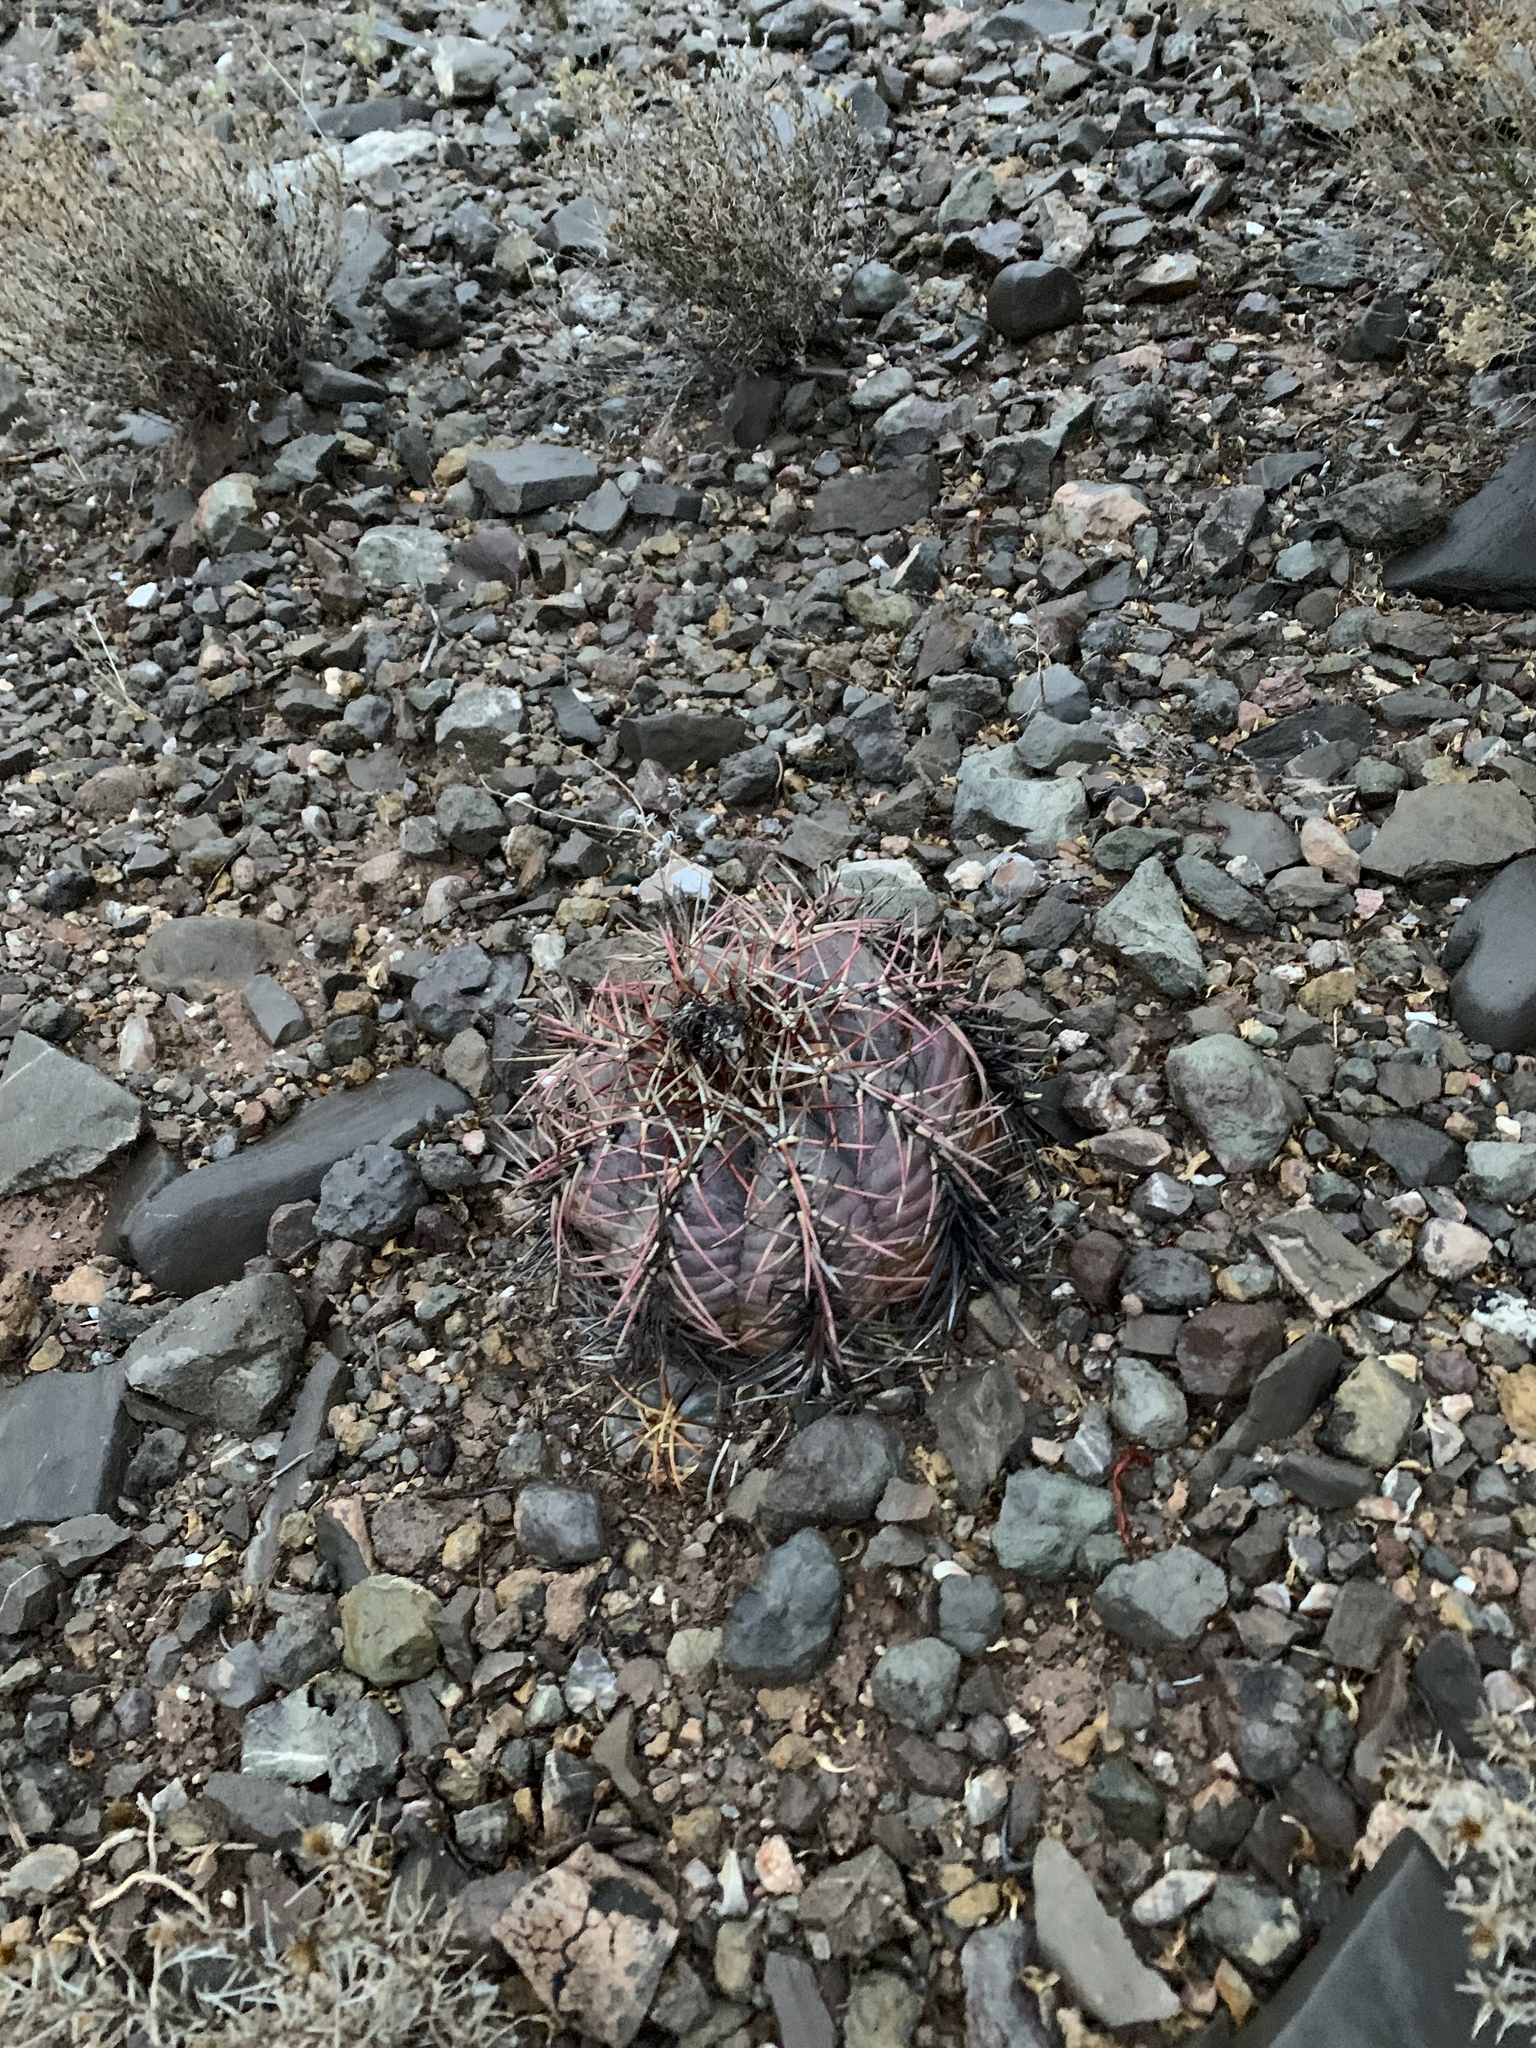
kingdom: Plantae
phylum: Tracheophyta
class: Magnoliopsida
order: Caryophyllales
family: Cactaceae
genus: Echinocactus
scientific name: Echinocactus horizonthalonius
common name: Devilshead
